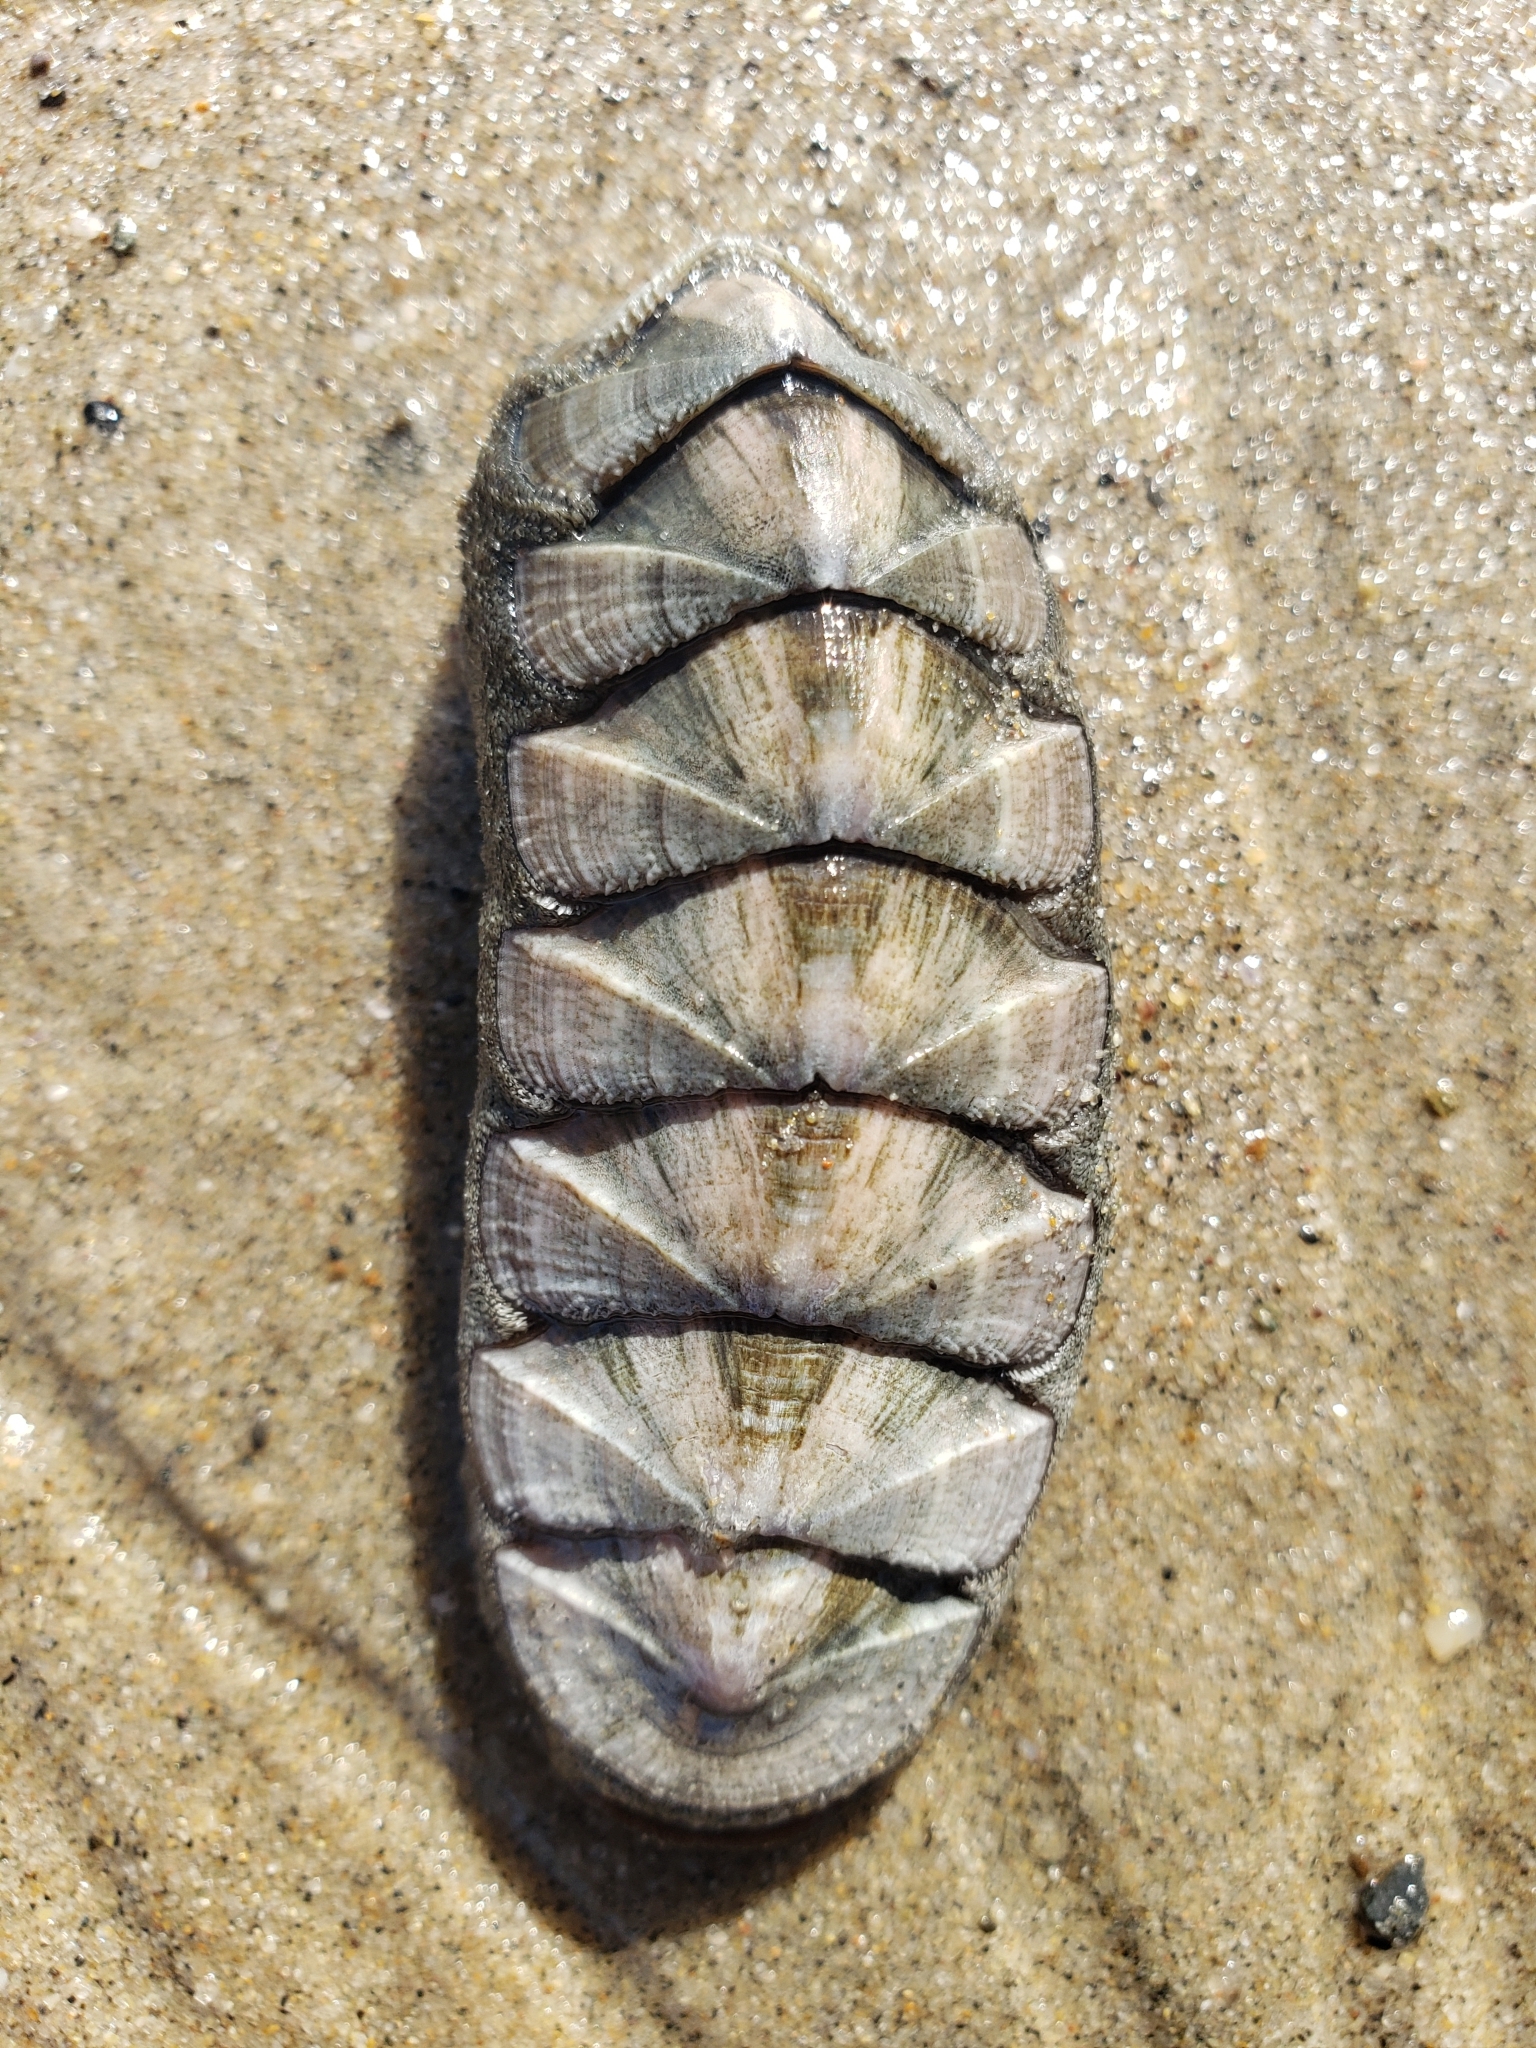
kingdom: Animalia
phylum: Mollusca
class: Polyplacophora
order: Chitonida
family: Ischnochitonidae
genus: Stenoplax
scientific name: Stenoplax conspicua
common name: Conspicuous chiton
